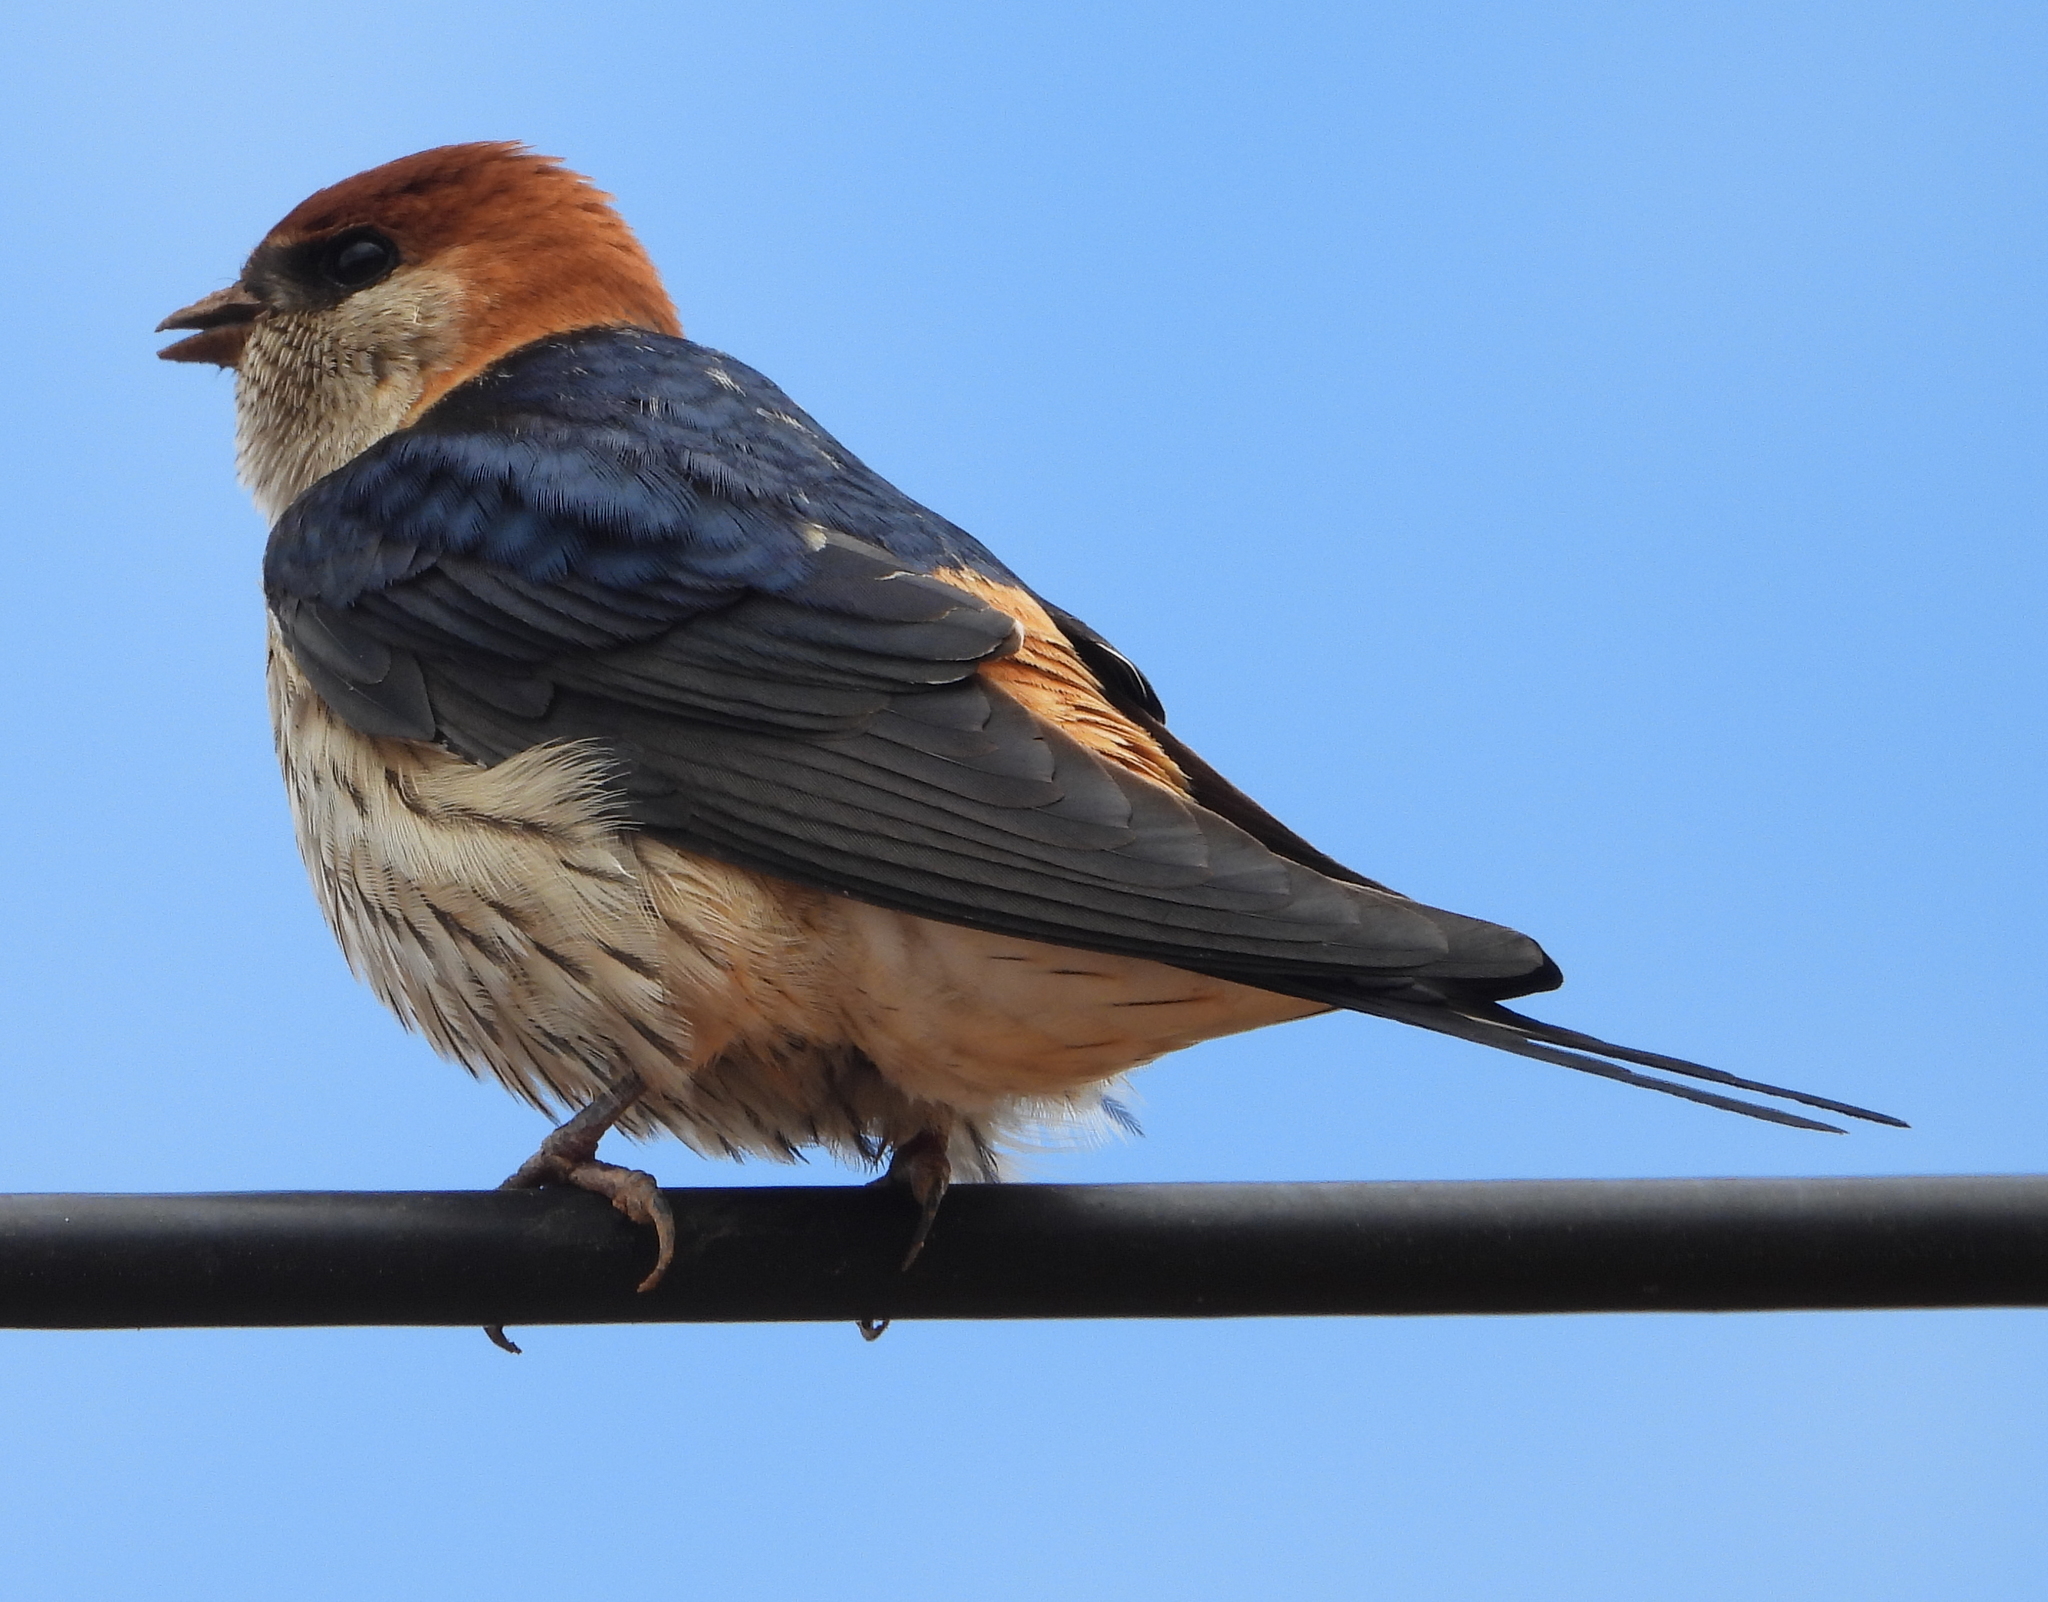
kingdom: Animalia
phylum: Chordata
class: Aves
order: Passeriformes
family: Hirundinidae
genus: Cecropis
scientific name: Cecropis cucullata
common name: Greater striped-swallow
